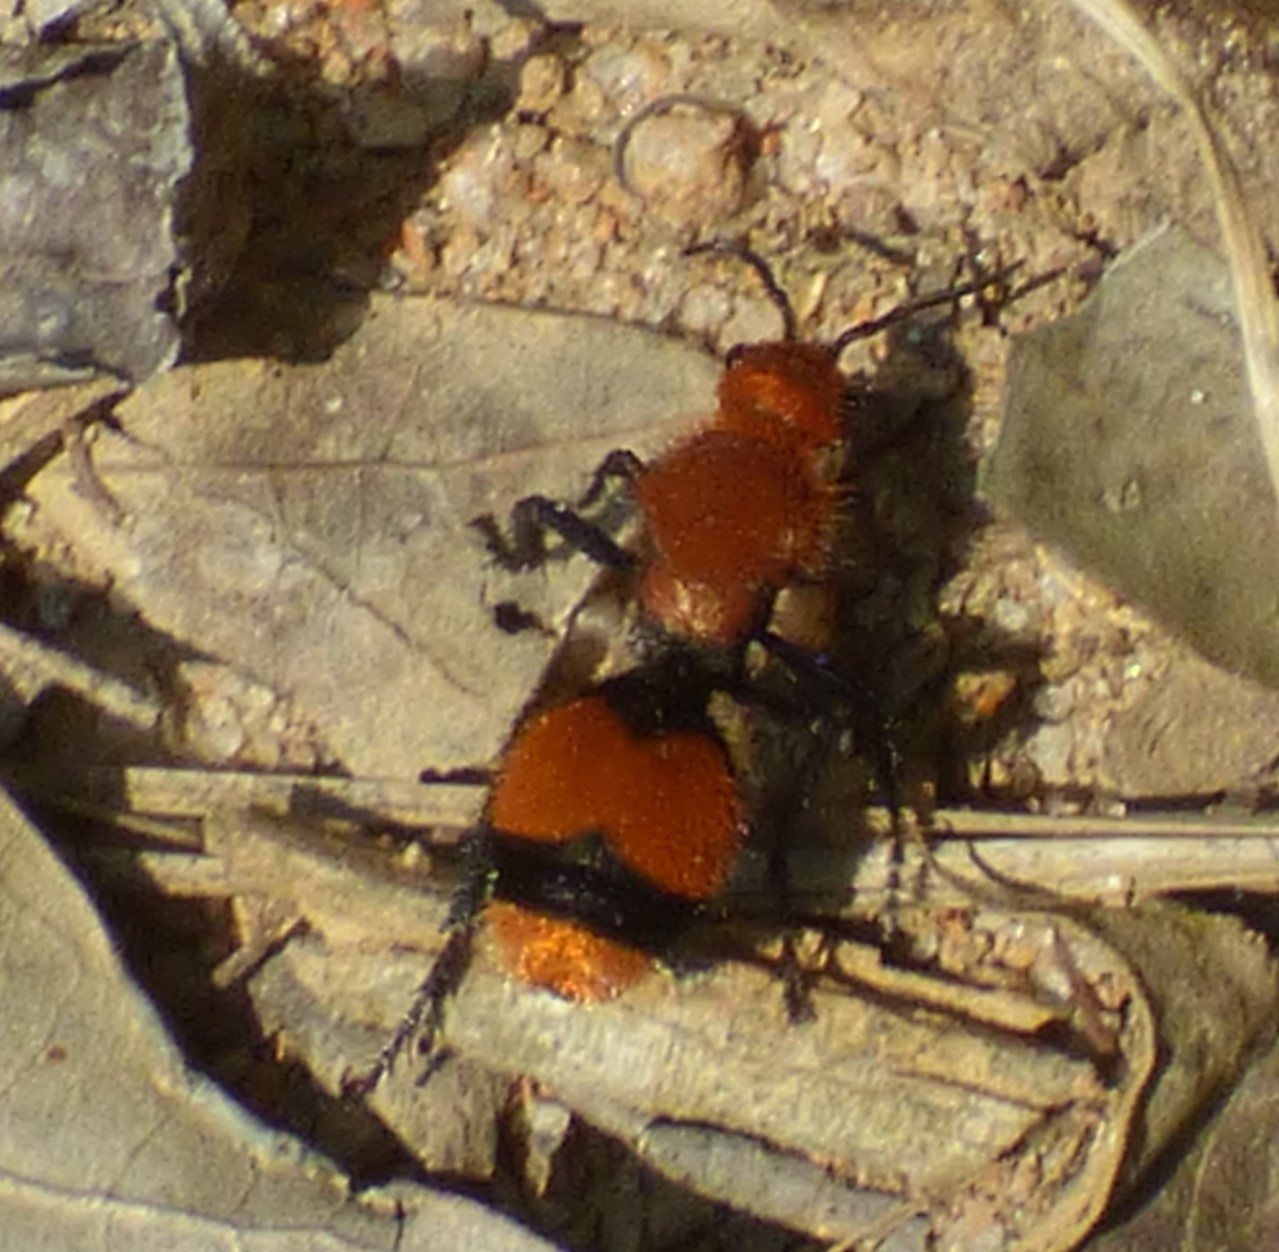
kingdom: Animalia
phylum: Arthropoda
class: Insecta
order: Hymenoptera
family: Mutillidae
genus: Dasymutilla
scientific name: Dasymutilla occidentalis
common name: Common eastern velvet ant
